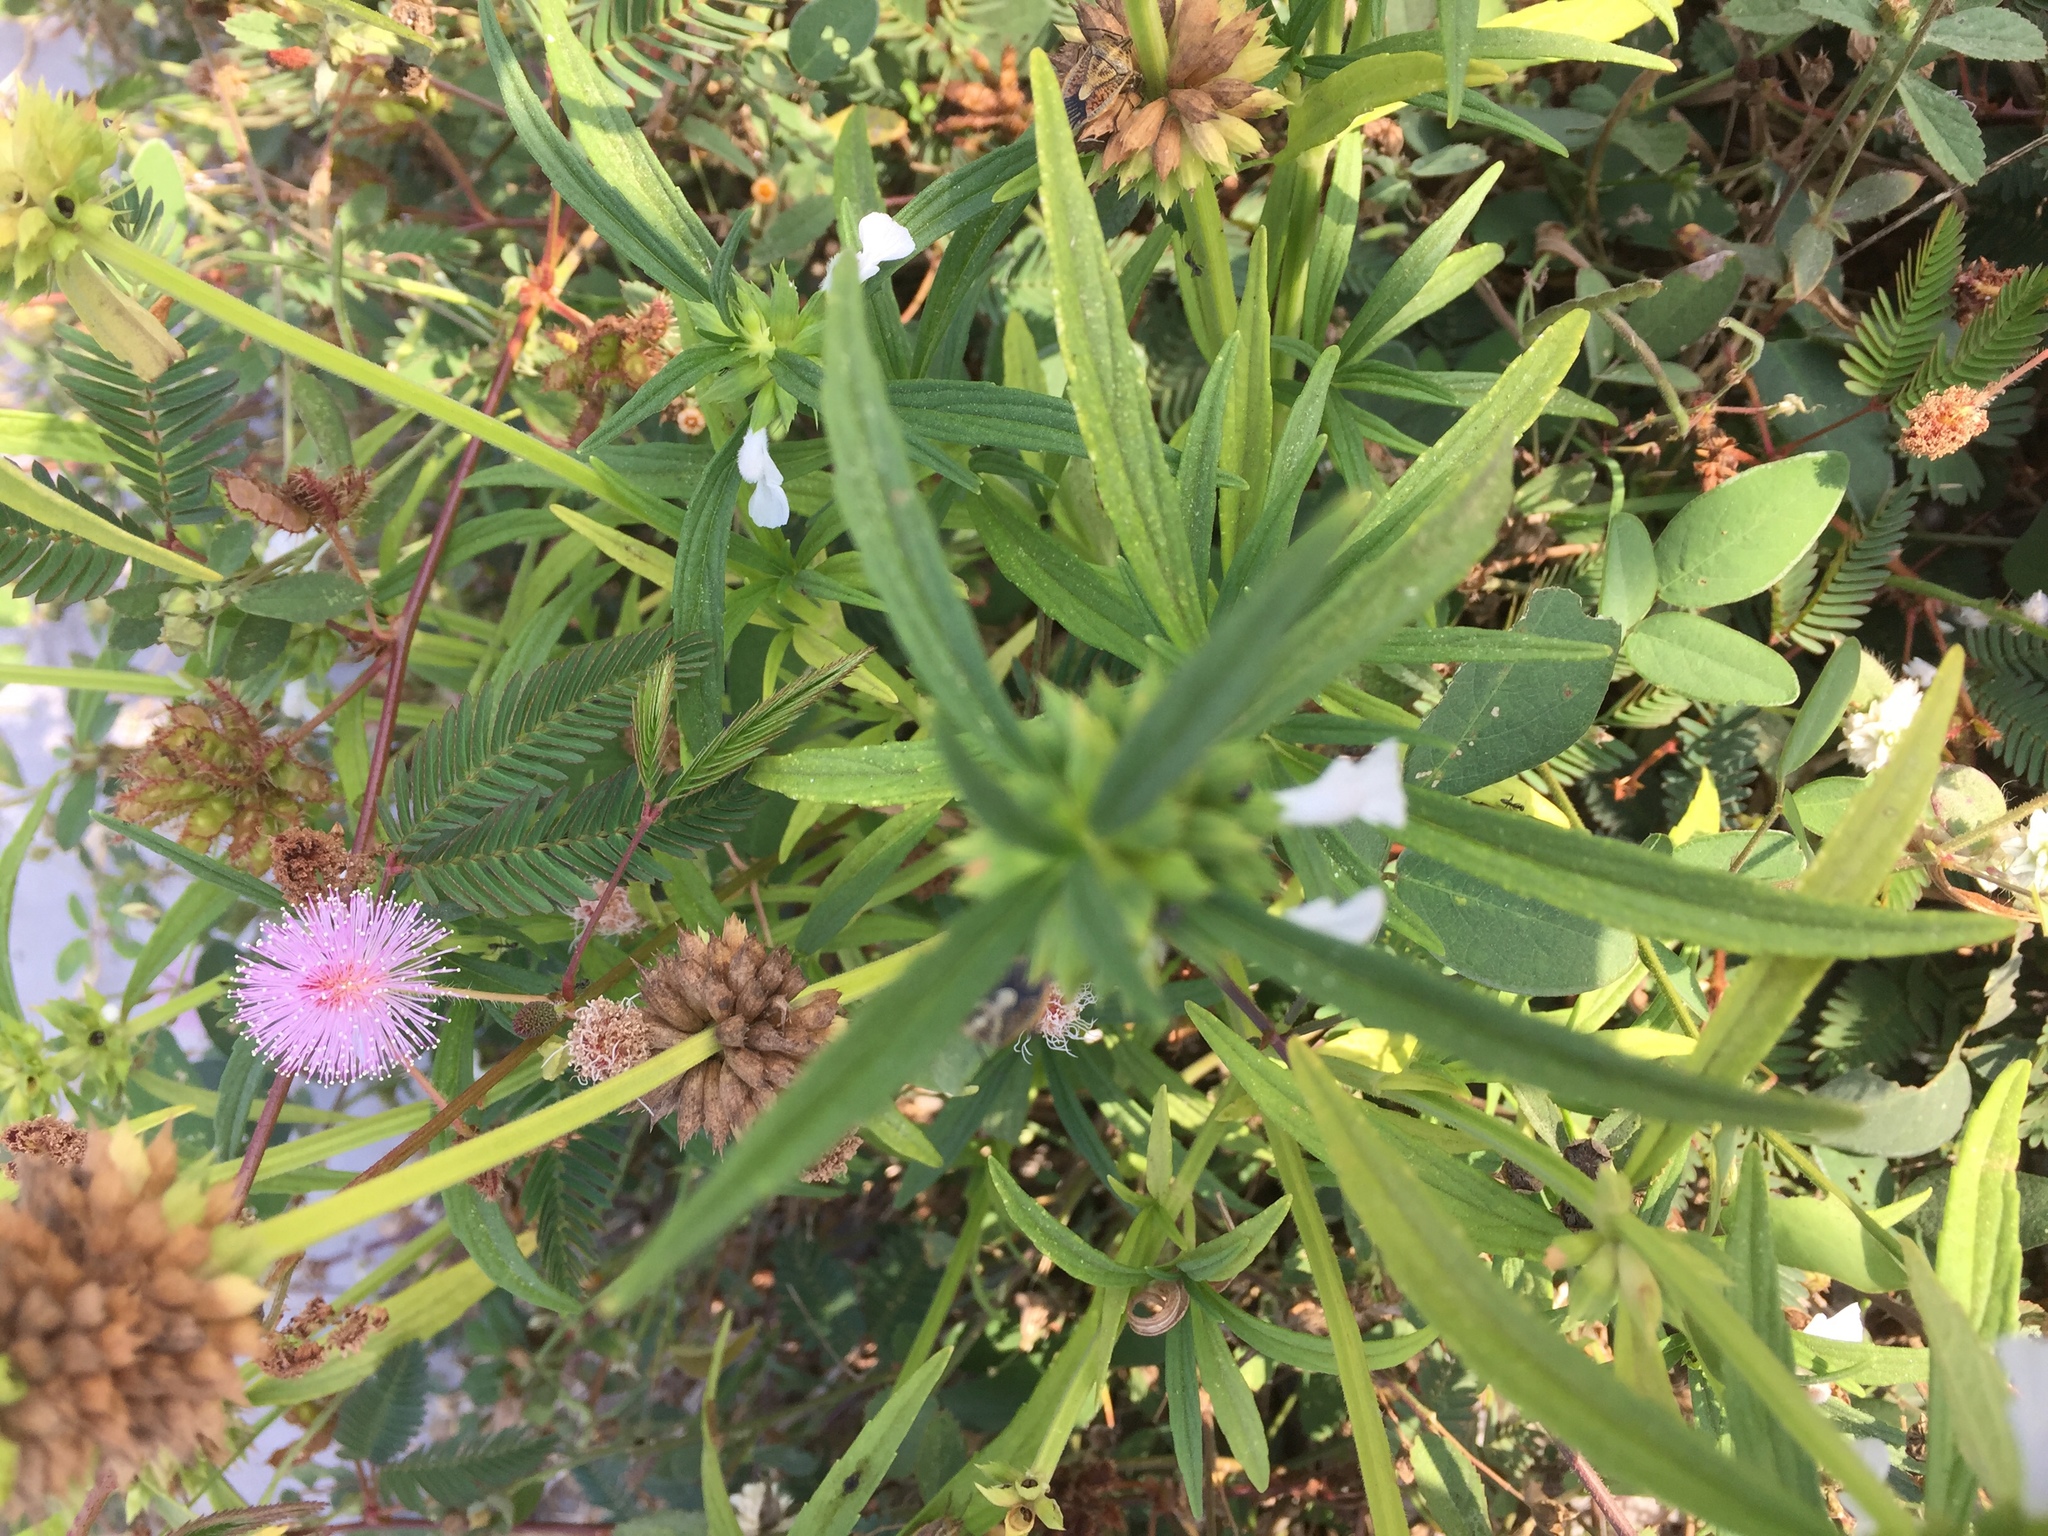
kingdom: Plantae
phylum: Tracheophyta
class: Magnoliopsida
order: Fabales
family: Fabaceae
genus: Mimosa
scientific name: Mimosa pudica
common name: Sensitive plant
